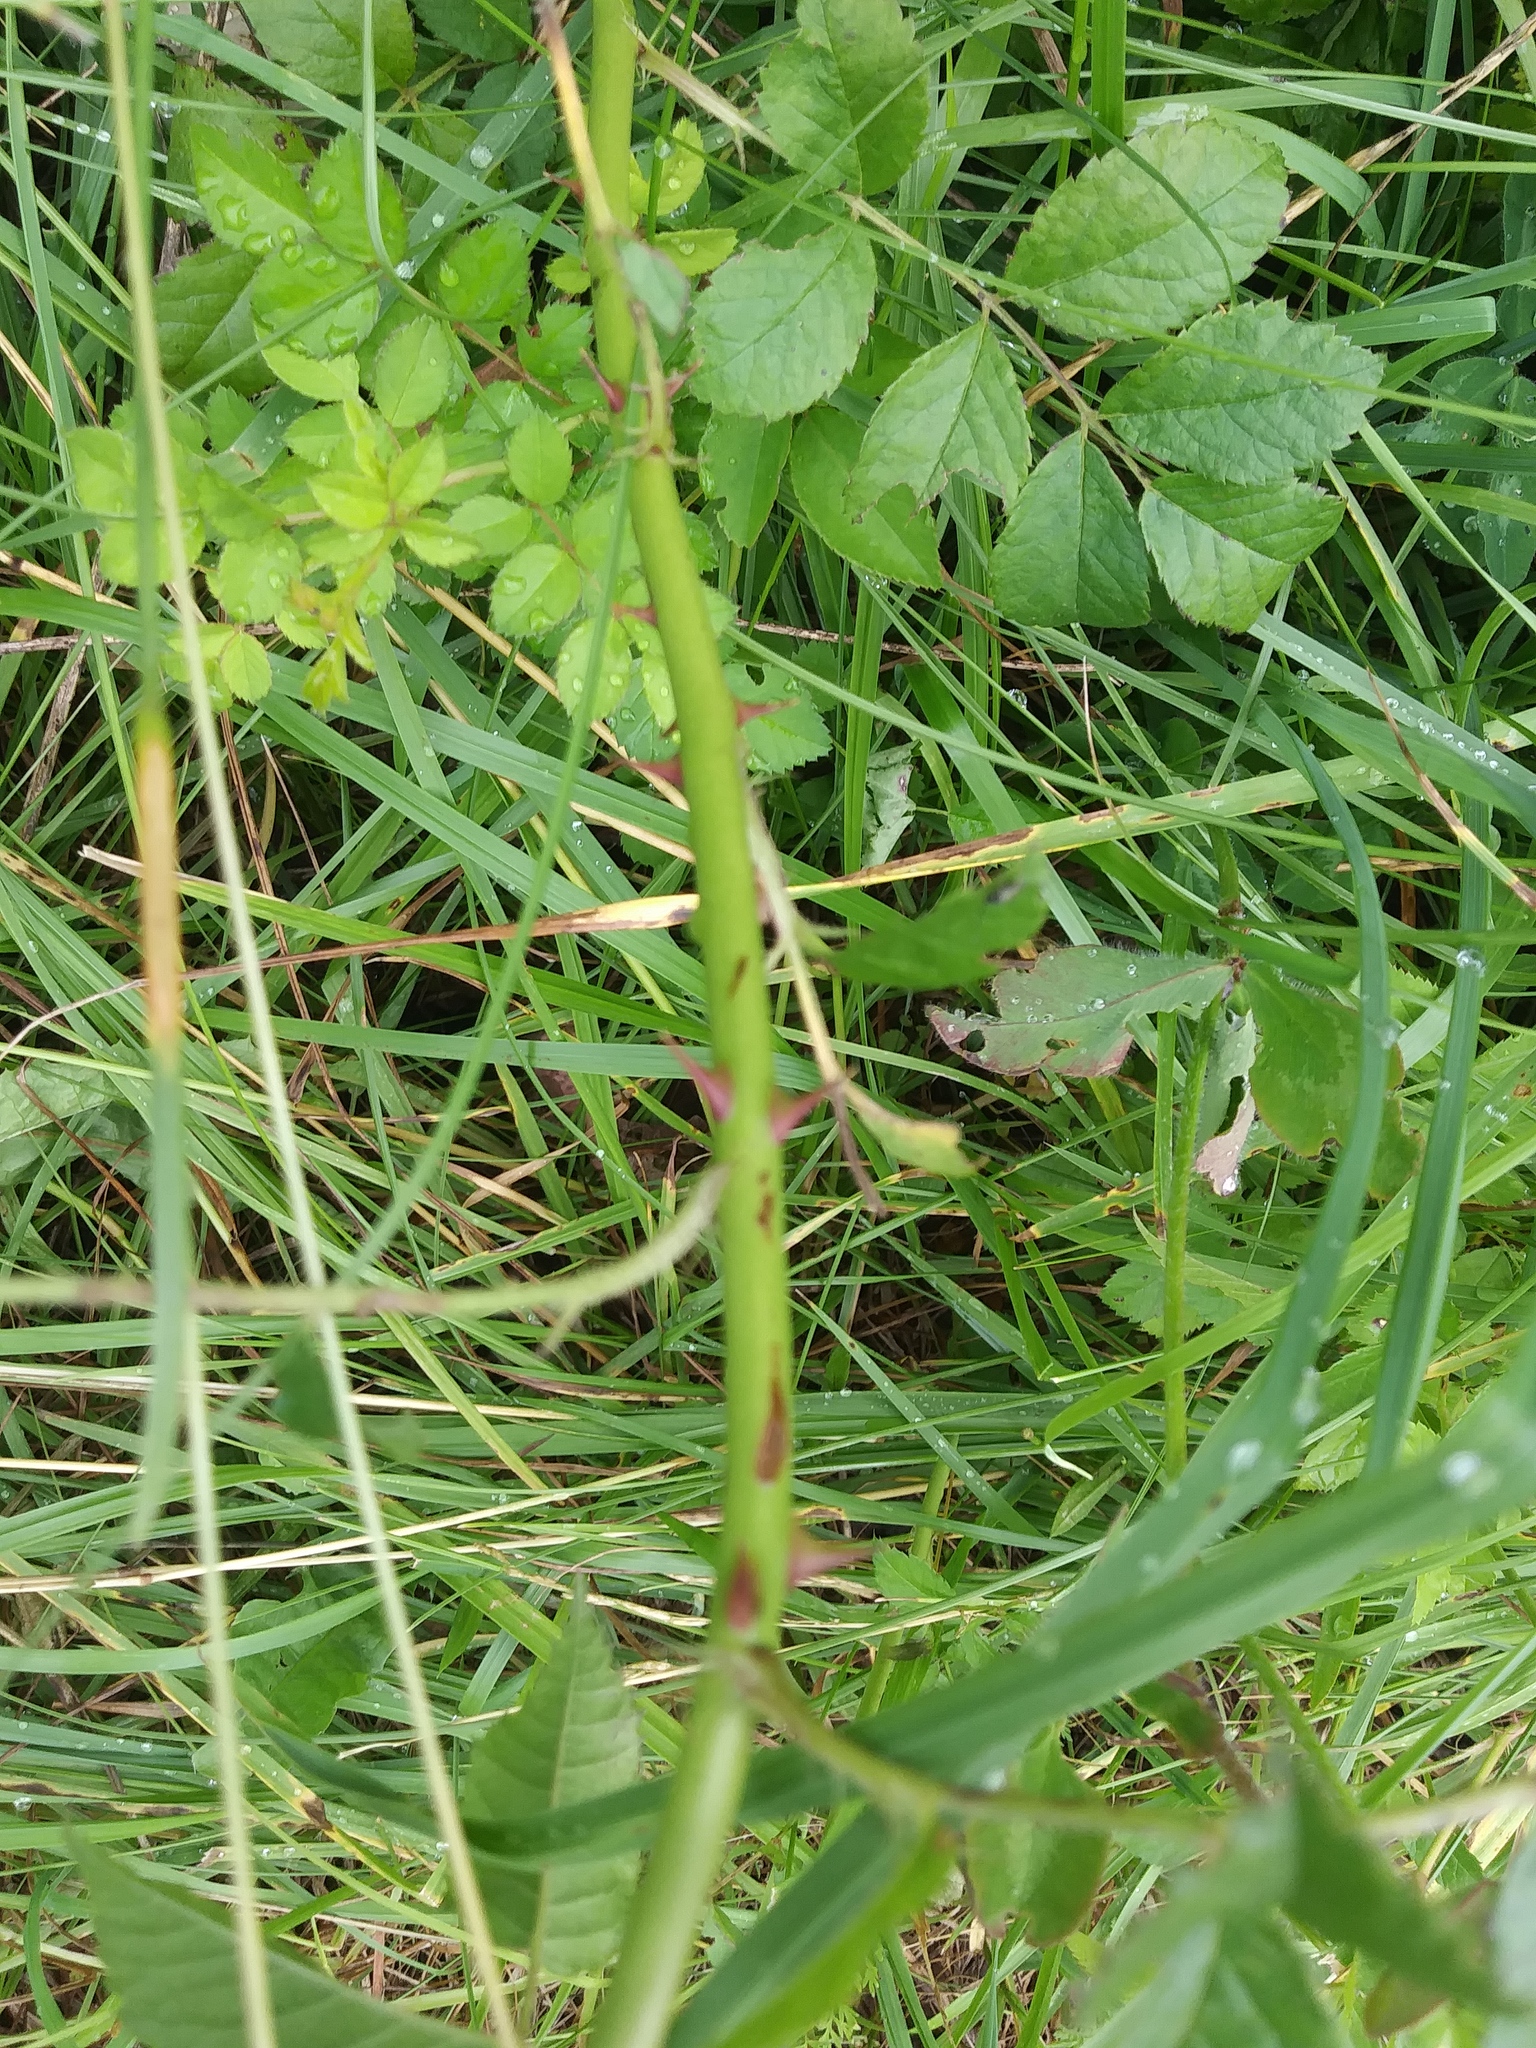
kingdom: Plantae
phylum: Tracheophyta
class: Magnoliopsida
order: Rosales
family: Rosaceae
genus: Rosa
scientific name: Rosa multiflora
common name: Multiflora rose
